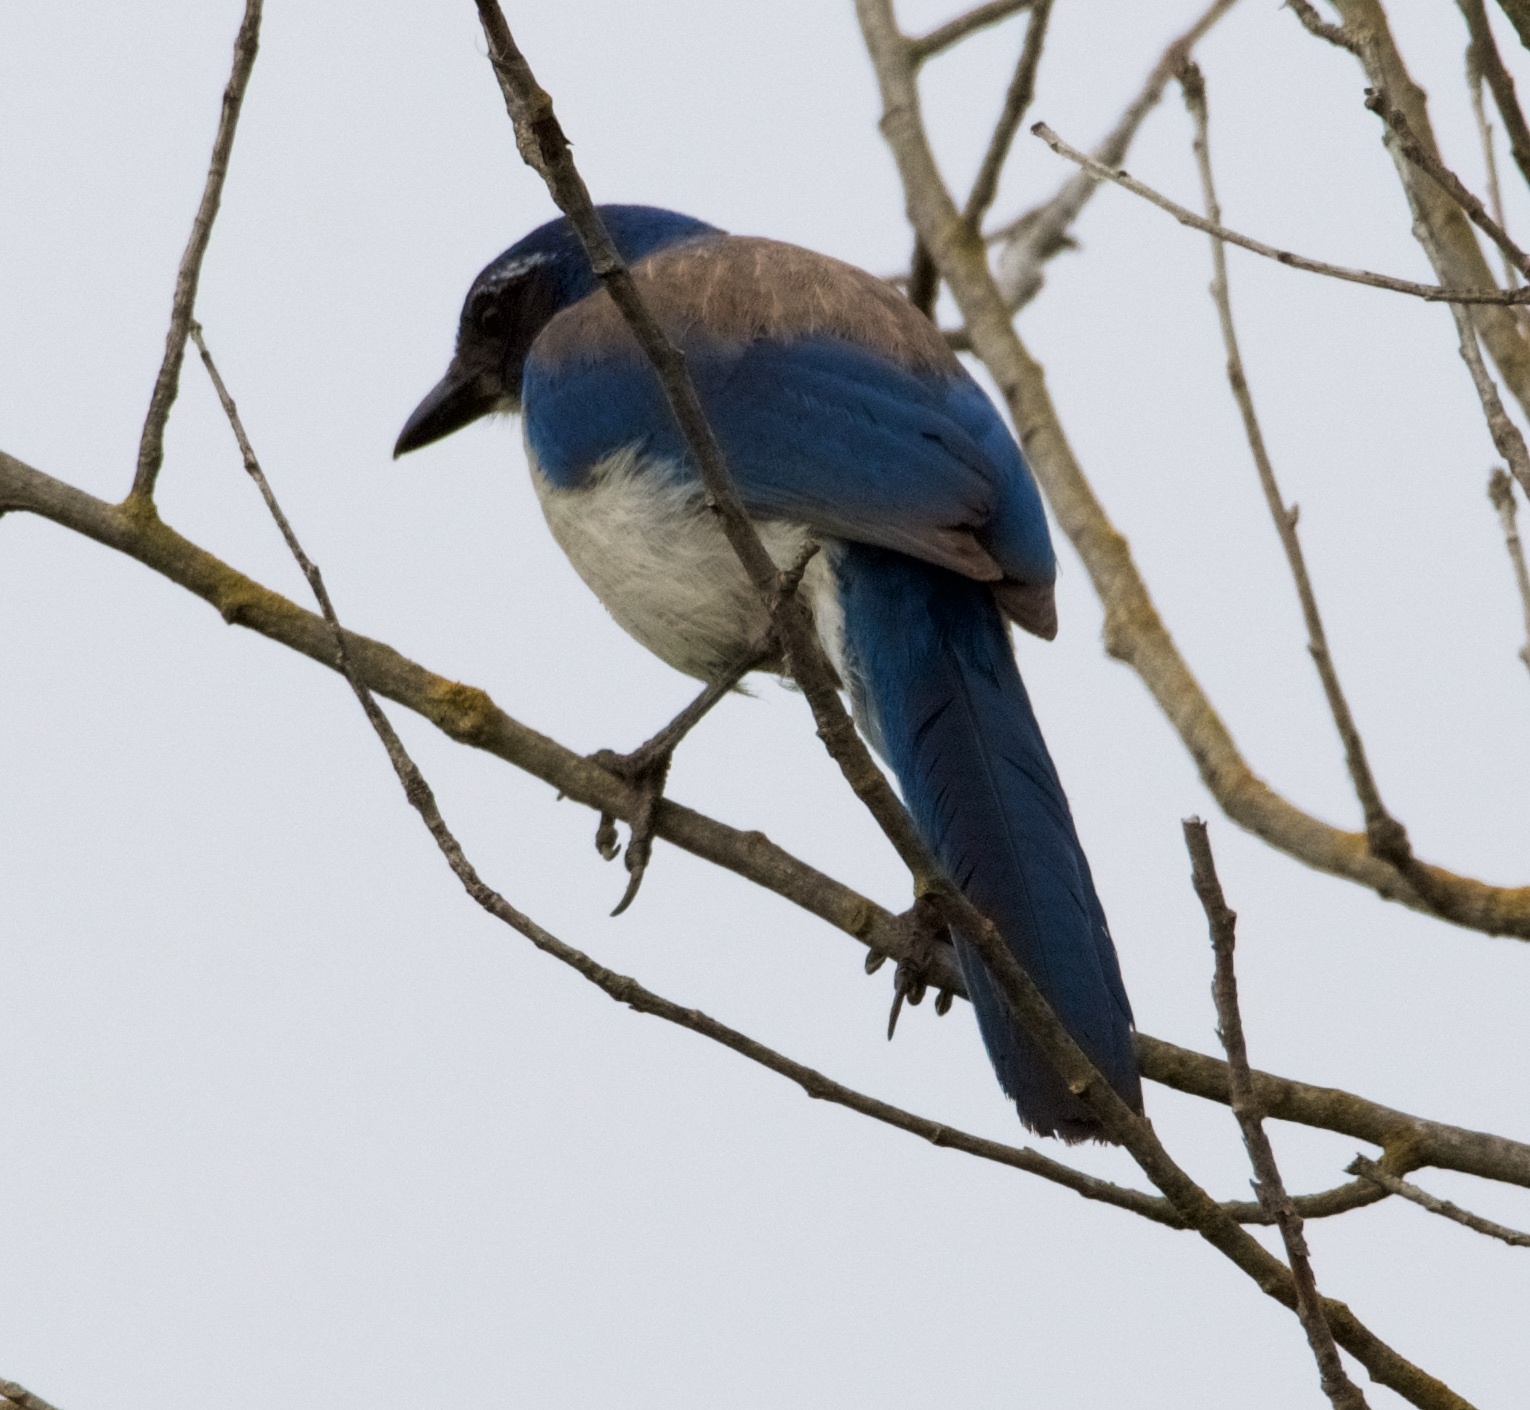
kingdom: Animalia
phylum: Chordata
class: Aves
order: Passeriformes
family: Corvidae
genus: Aphelocoma
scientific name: Aphelocoma californica
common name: California scrub-jay
